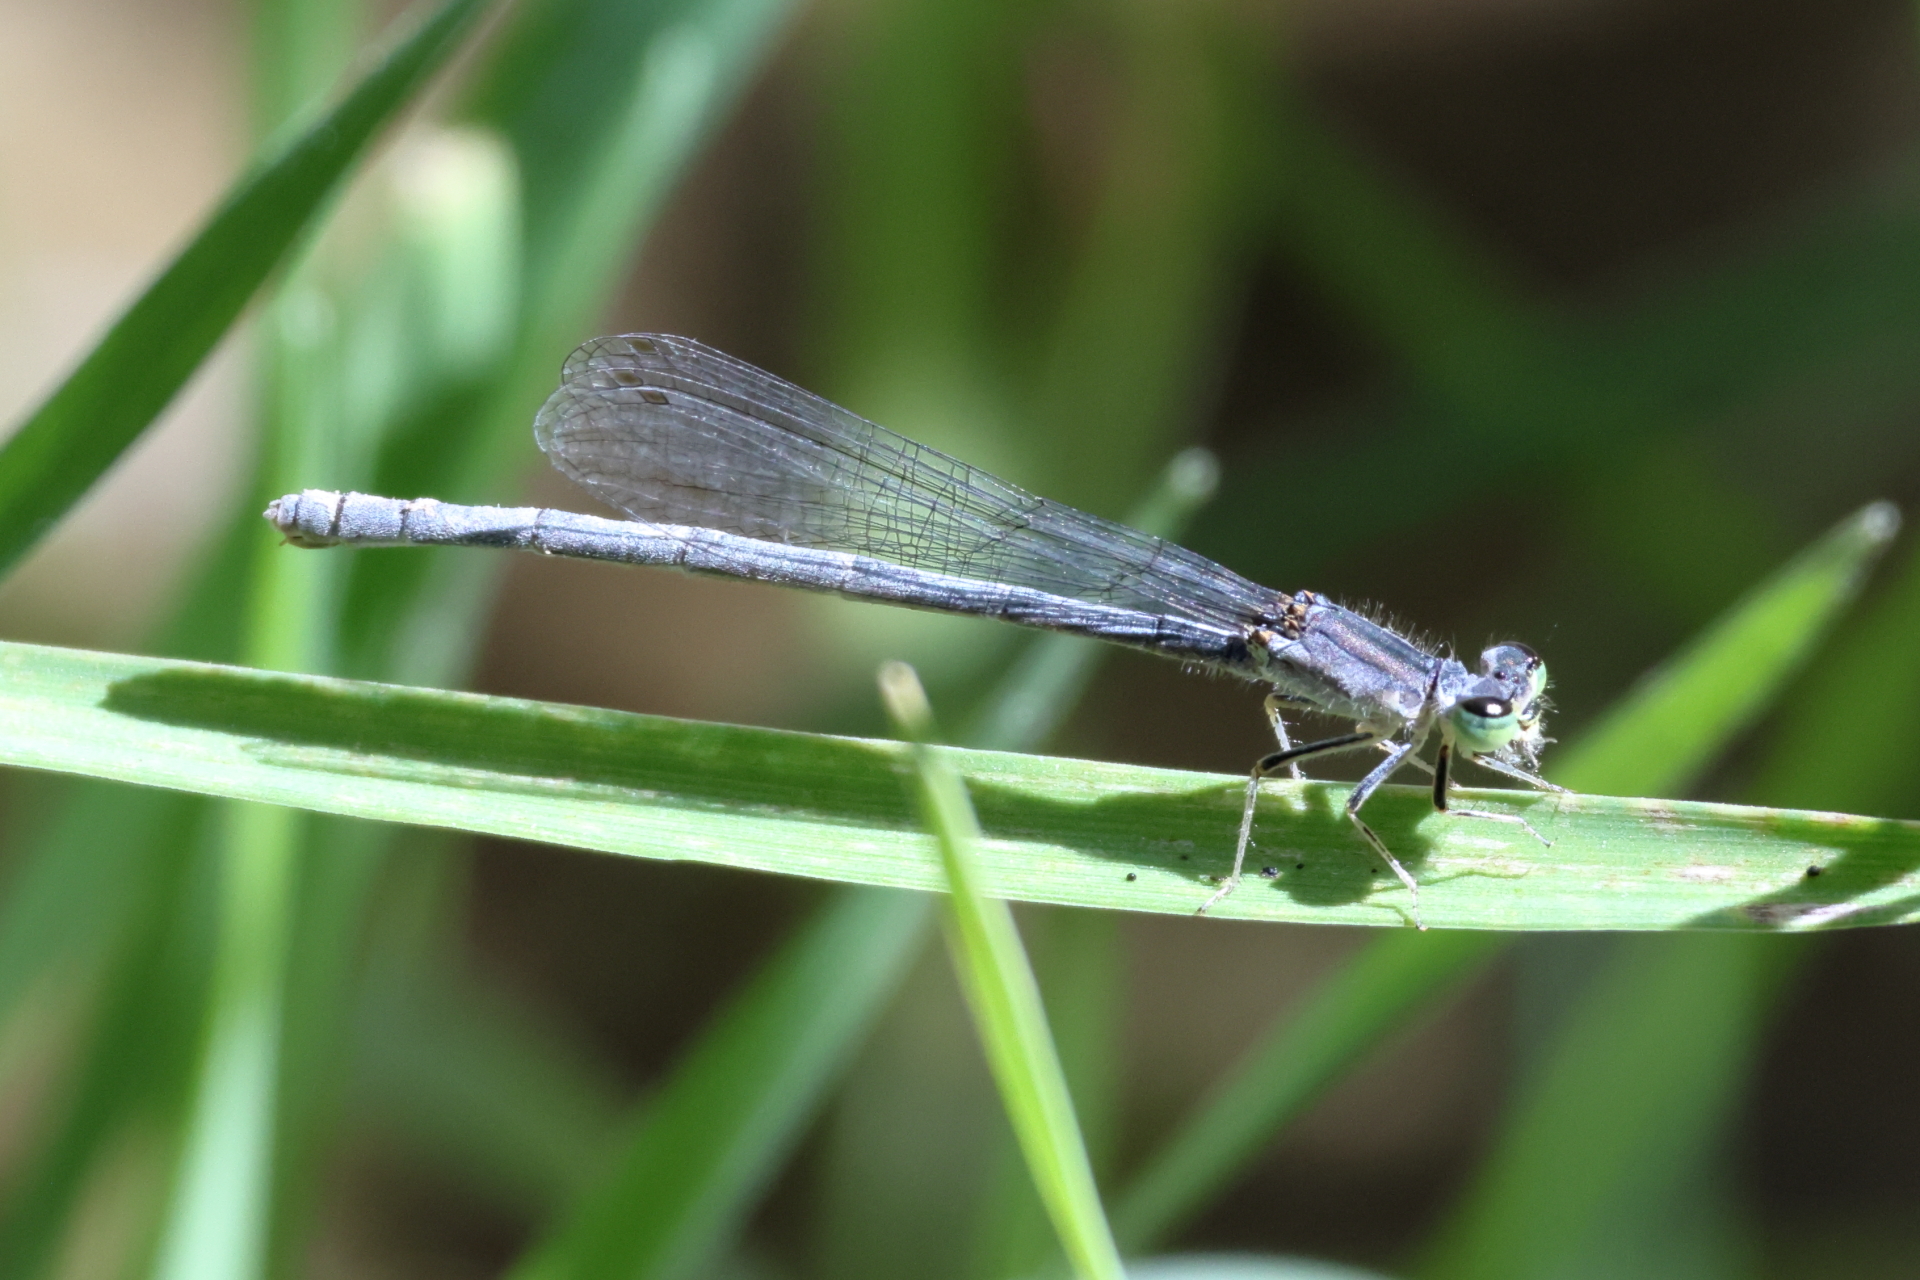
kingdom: Animalia
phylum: Arthropoda
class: Insecta
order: Odonata
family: Coenagrionidae
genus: Ischnura
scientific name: Ischnura demorsa
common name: Mexican forktail
